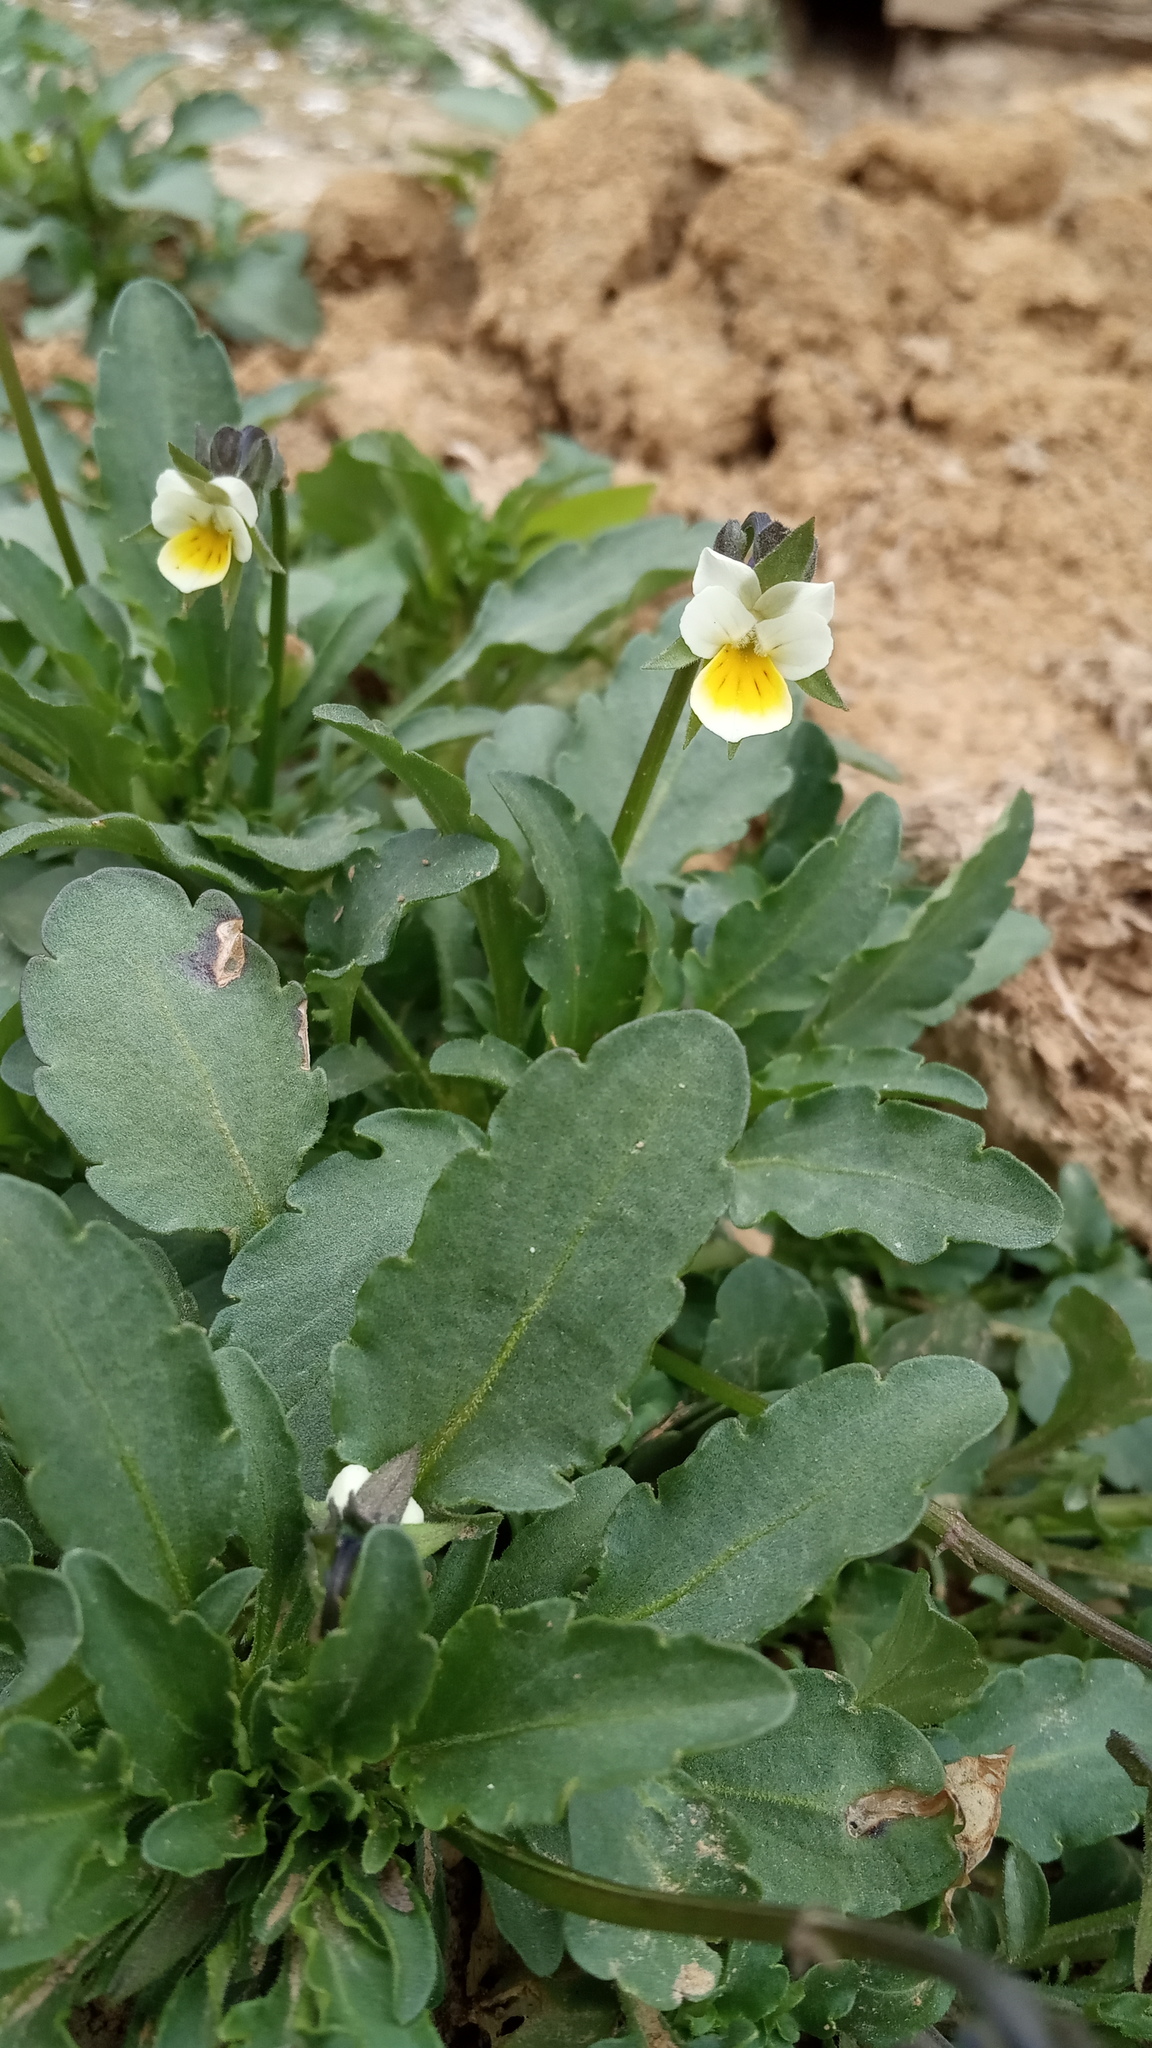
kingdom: Plantae
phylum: Tracheophyta
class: Magnoliopsida
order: Malpighiales
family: Violaceae
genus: Viola
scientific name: Viola arvensis
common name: Field pansy
